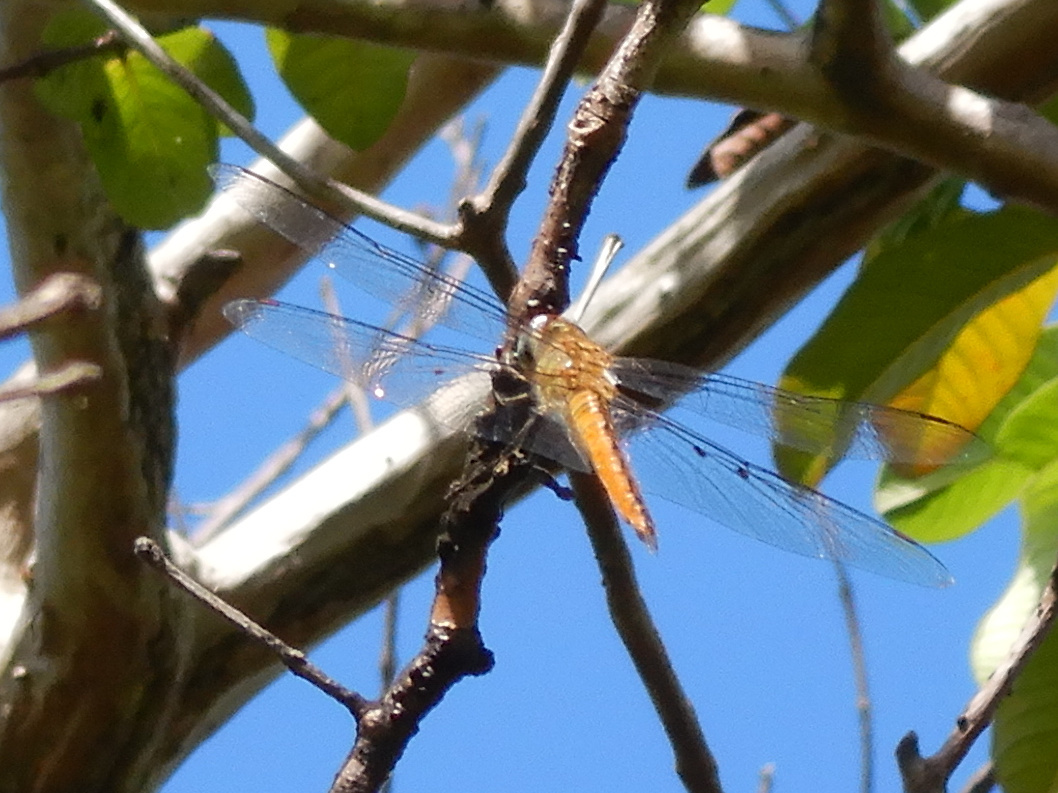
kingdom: Animalia
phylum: Arthropoda
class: Insecta
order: Odonata
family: Libellulidae
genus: Pantala
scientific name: Pantala flavescens
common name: Wandering glider
